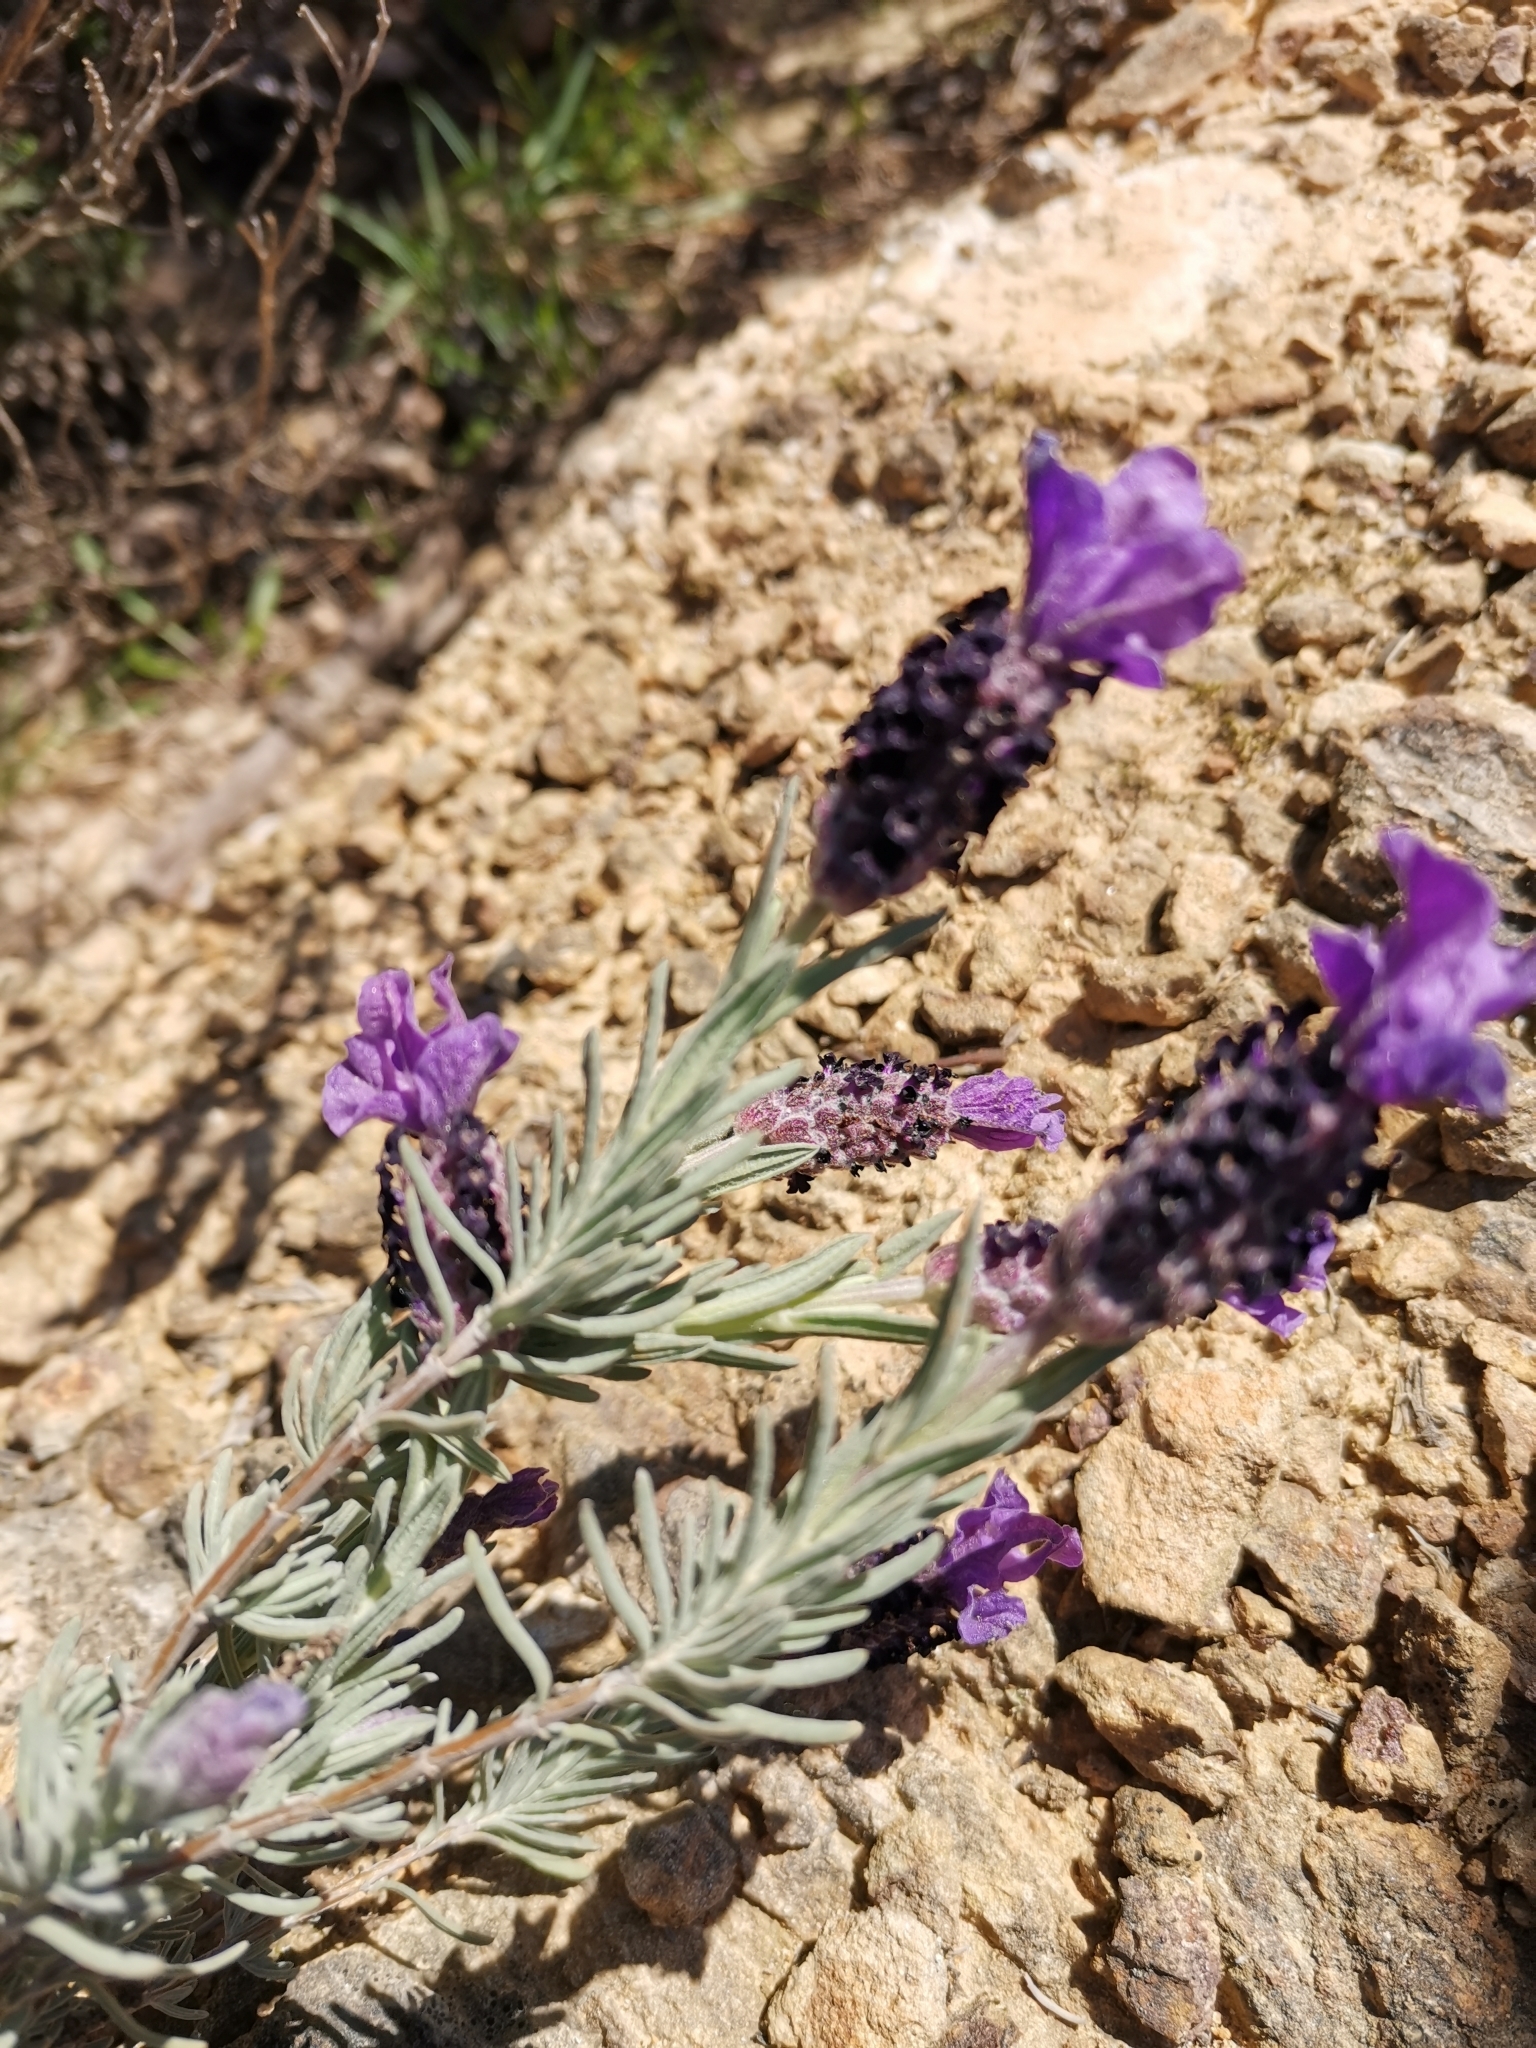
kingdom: Plantae
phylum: Tracheophyta
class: Magnoliopsida
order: Lamiales
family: Lamiaceae
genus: Lavandula
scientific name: Lavandula stoechas
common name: French lavender
